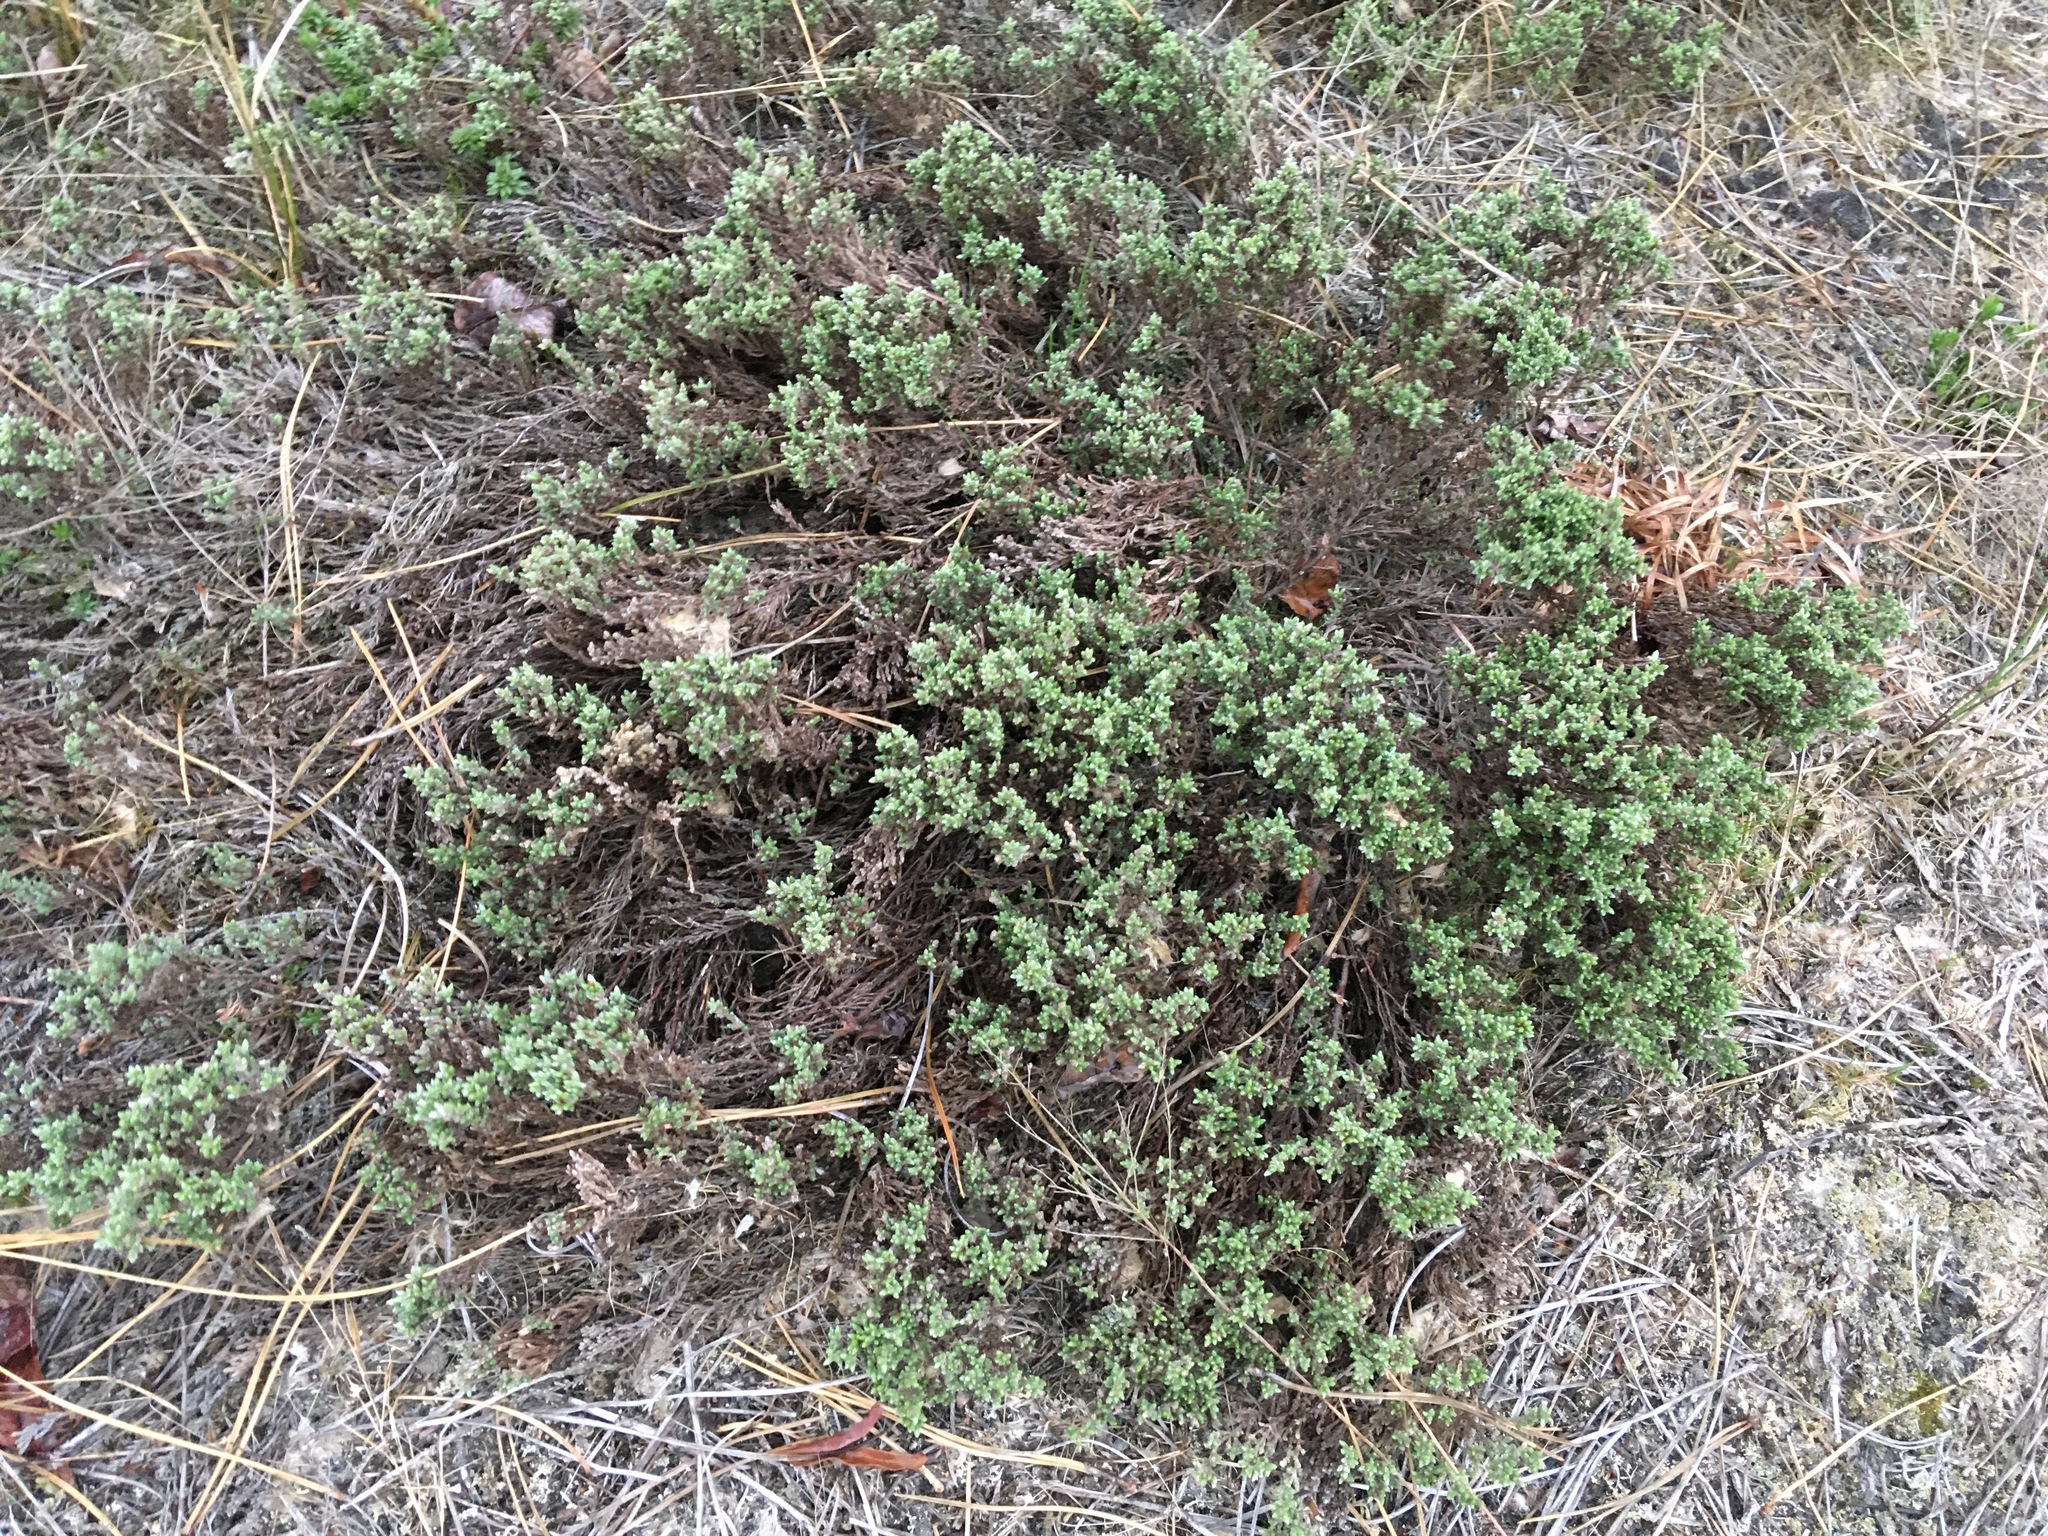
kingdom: Plantae
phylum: Tracheophyta
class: Magnoliopsida
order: Malvales
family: Cistaceae
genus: Hudsonia
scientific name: Hudsonia tomentosa
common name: Beach-heath
